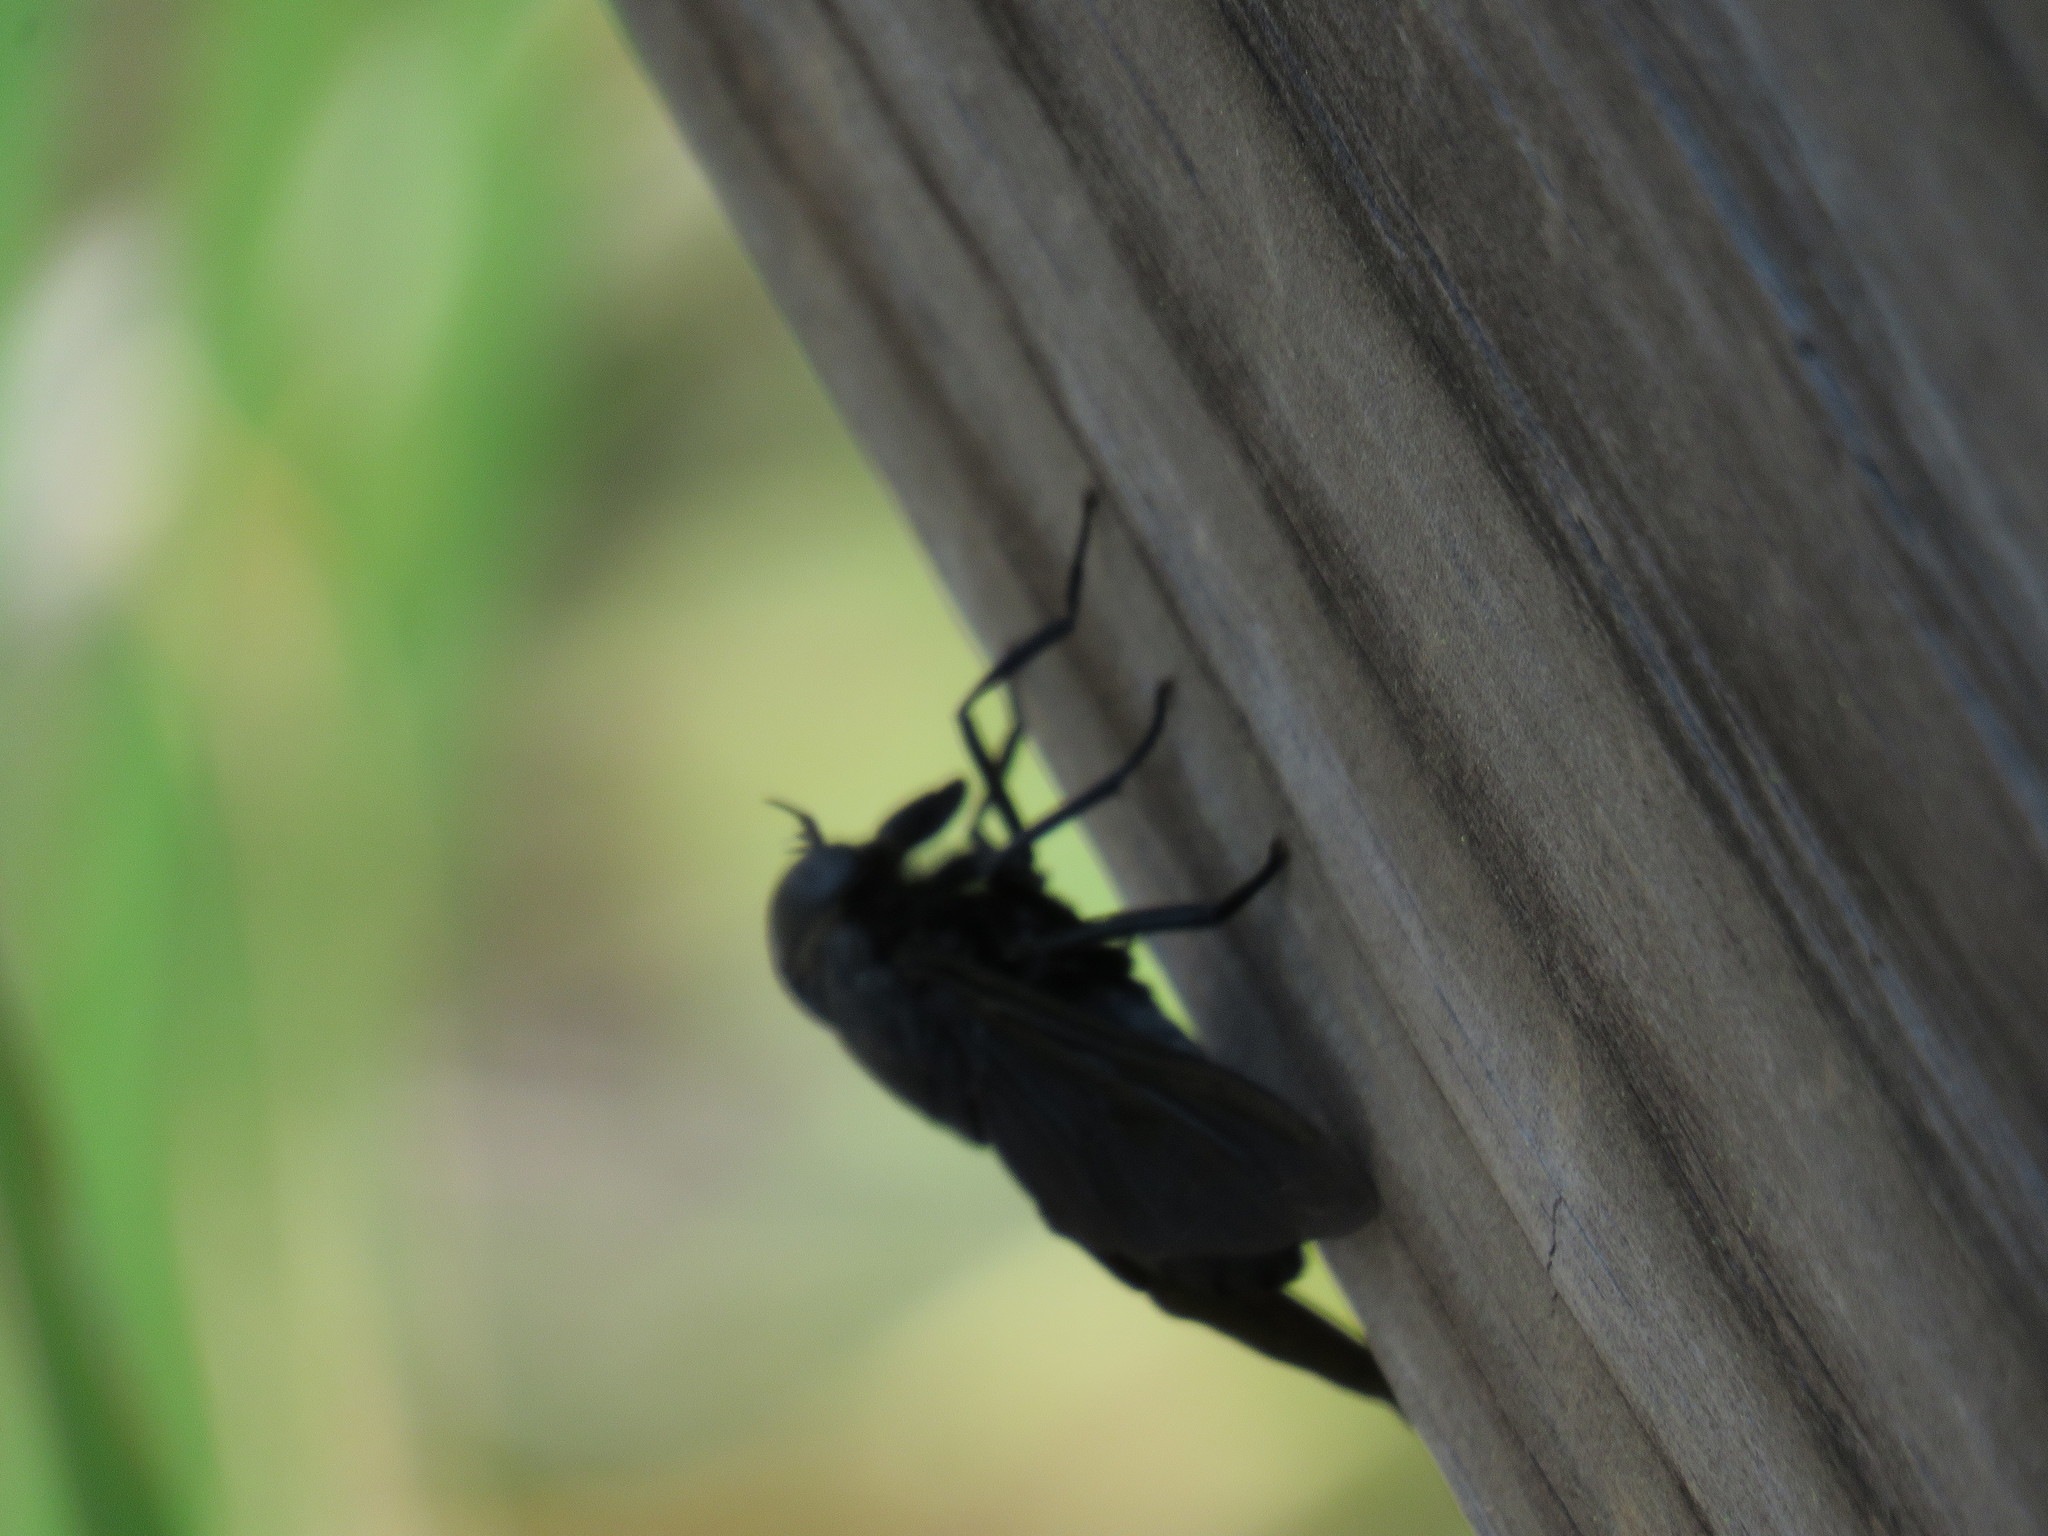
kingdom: Animalia
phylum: Arthropoda
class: Insecta
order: Diptera
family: Tabanidae
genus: Tabanus
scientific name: Tabanus atratus
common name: Black horse fly
